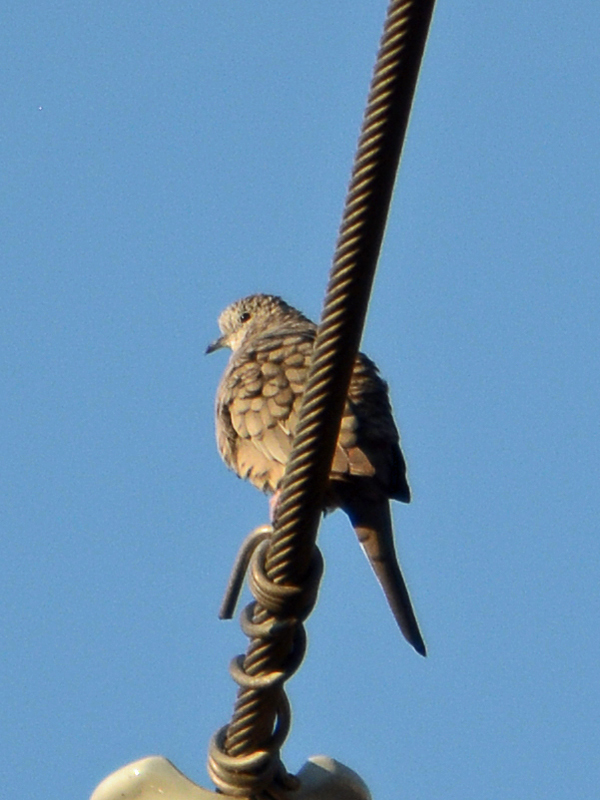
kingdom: Animalia
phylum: Chordata
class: Aves
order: Columbiformes
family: Columbidae
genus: Columbina
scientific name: Columbina inca
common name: Inca dove
